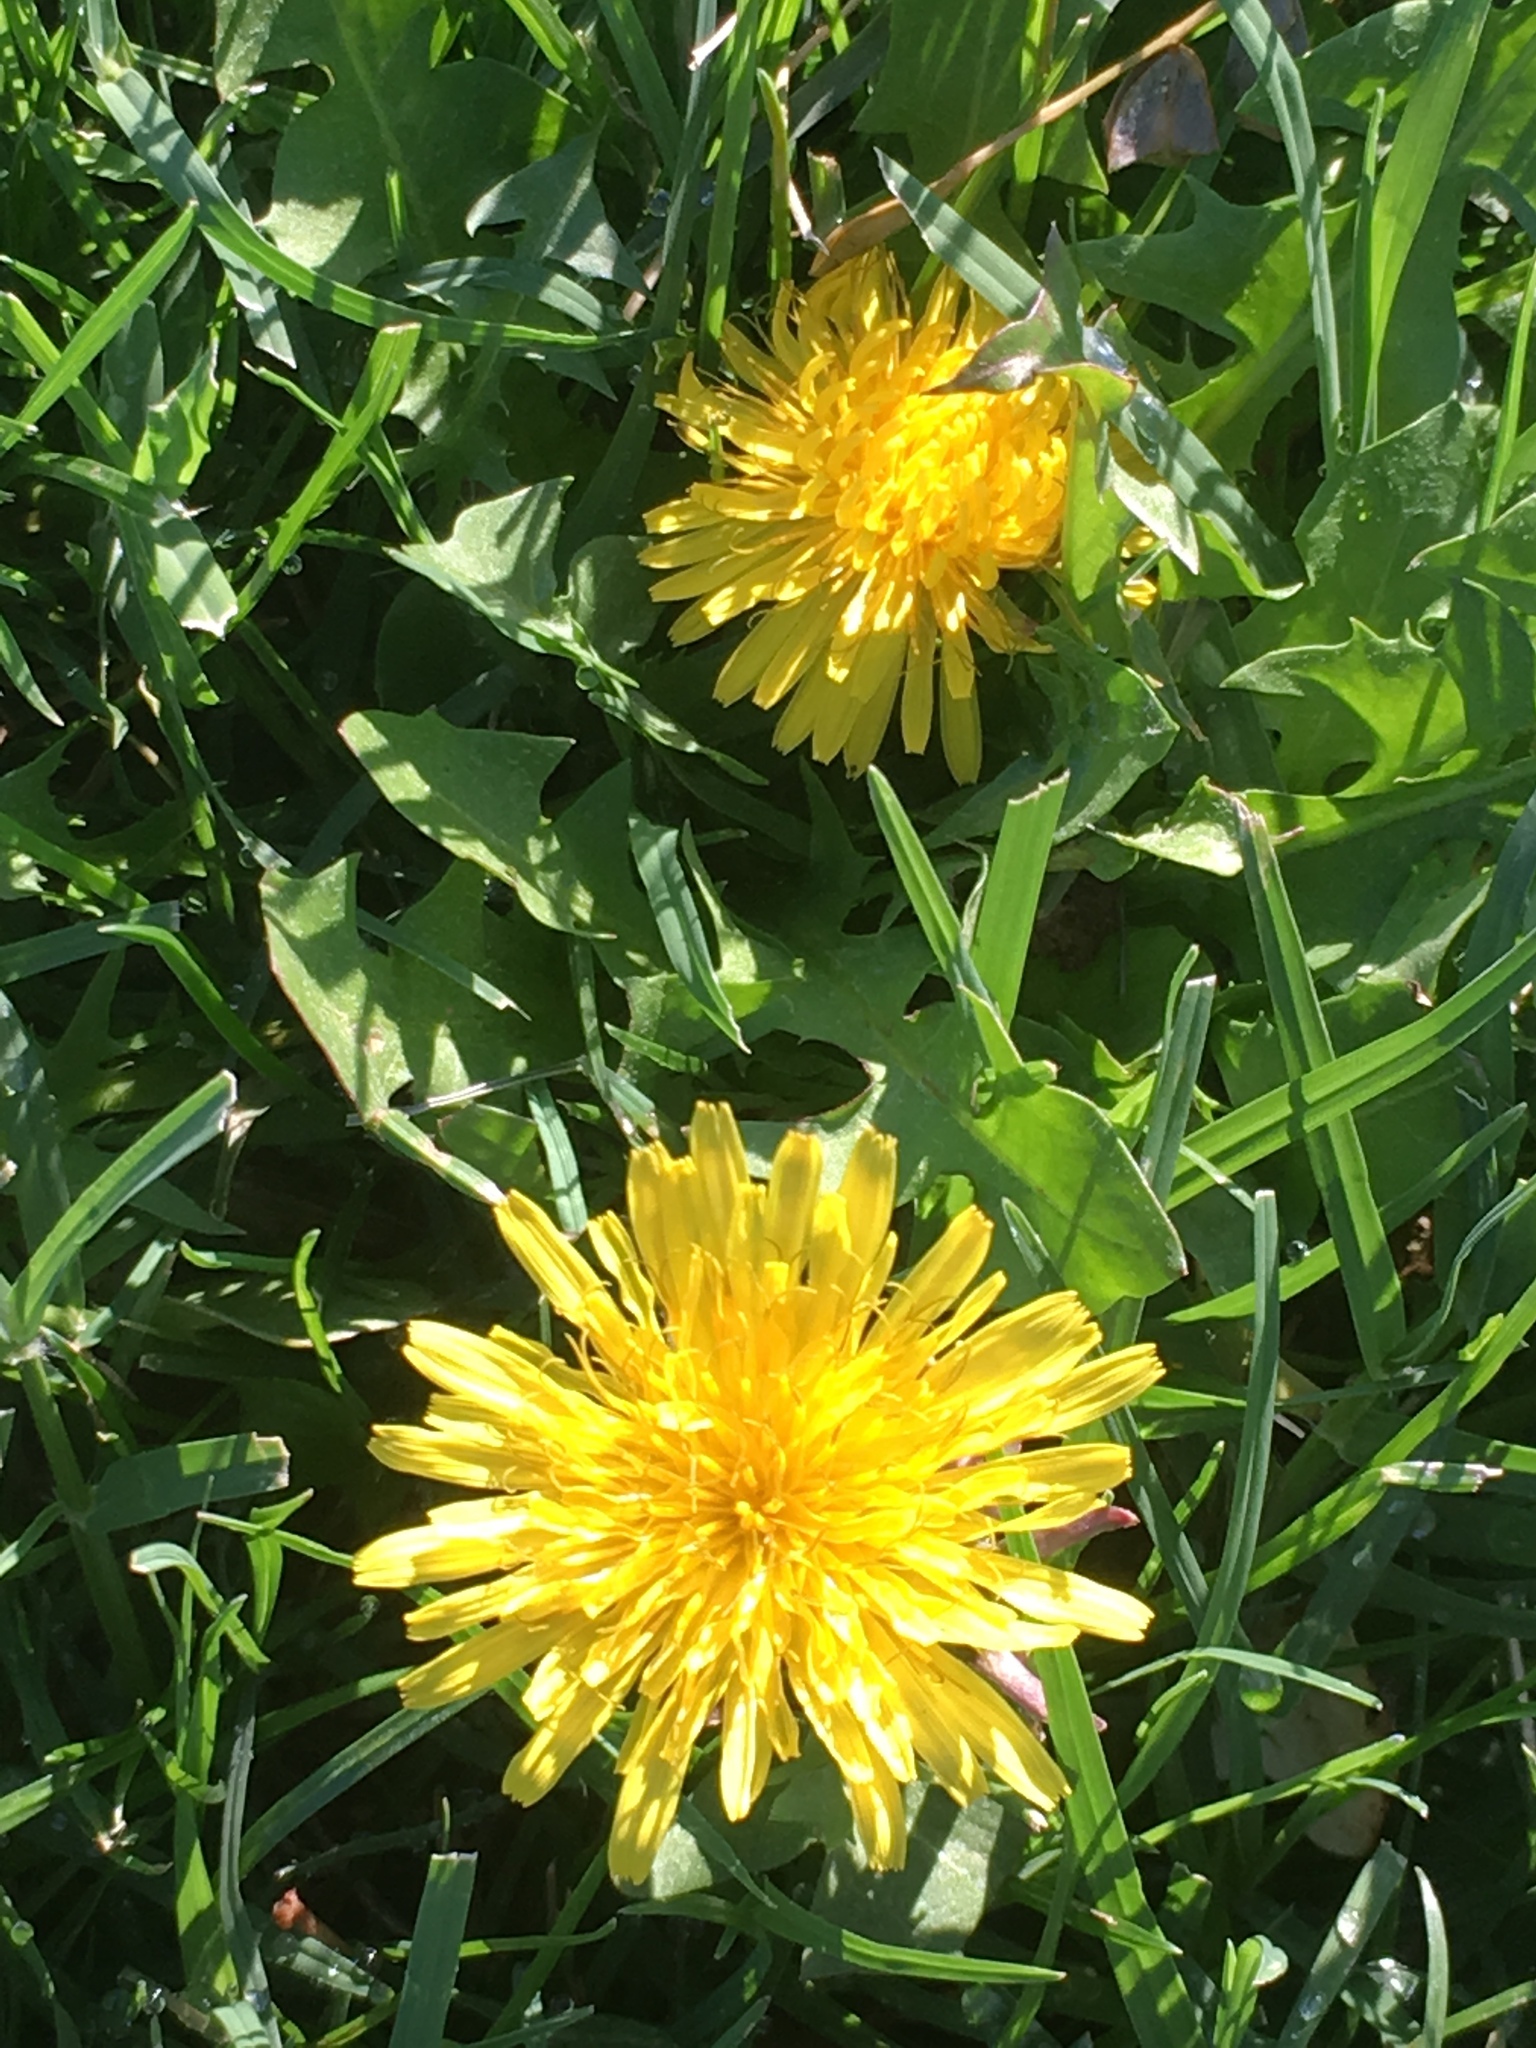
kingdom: Plantae
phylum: Tracheophyta
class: Magnoliopsida
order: Asterales
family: Asteraceae
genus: Taraxacum
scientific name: Taraxacum officinale
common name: Common dandelion
